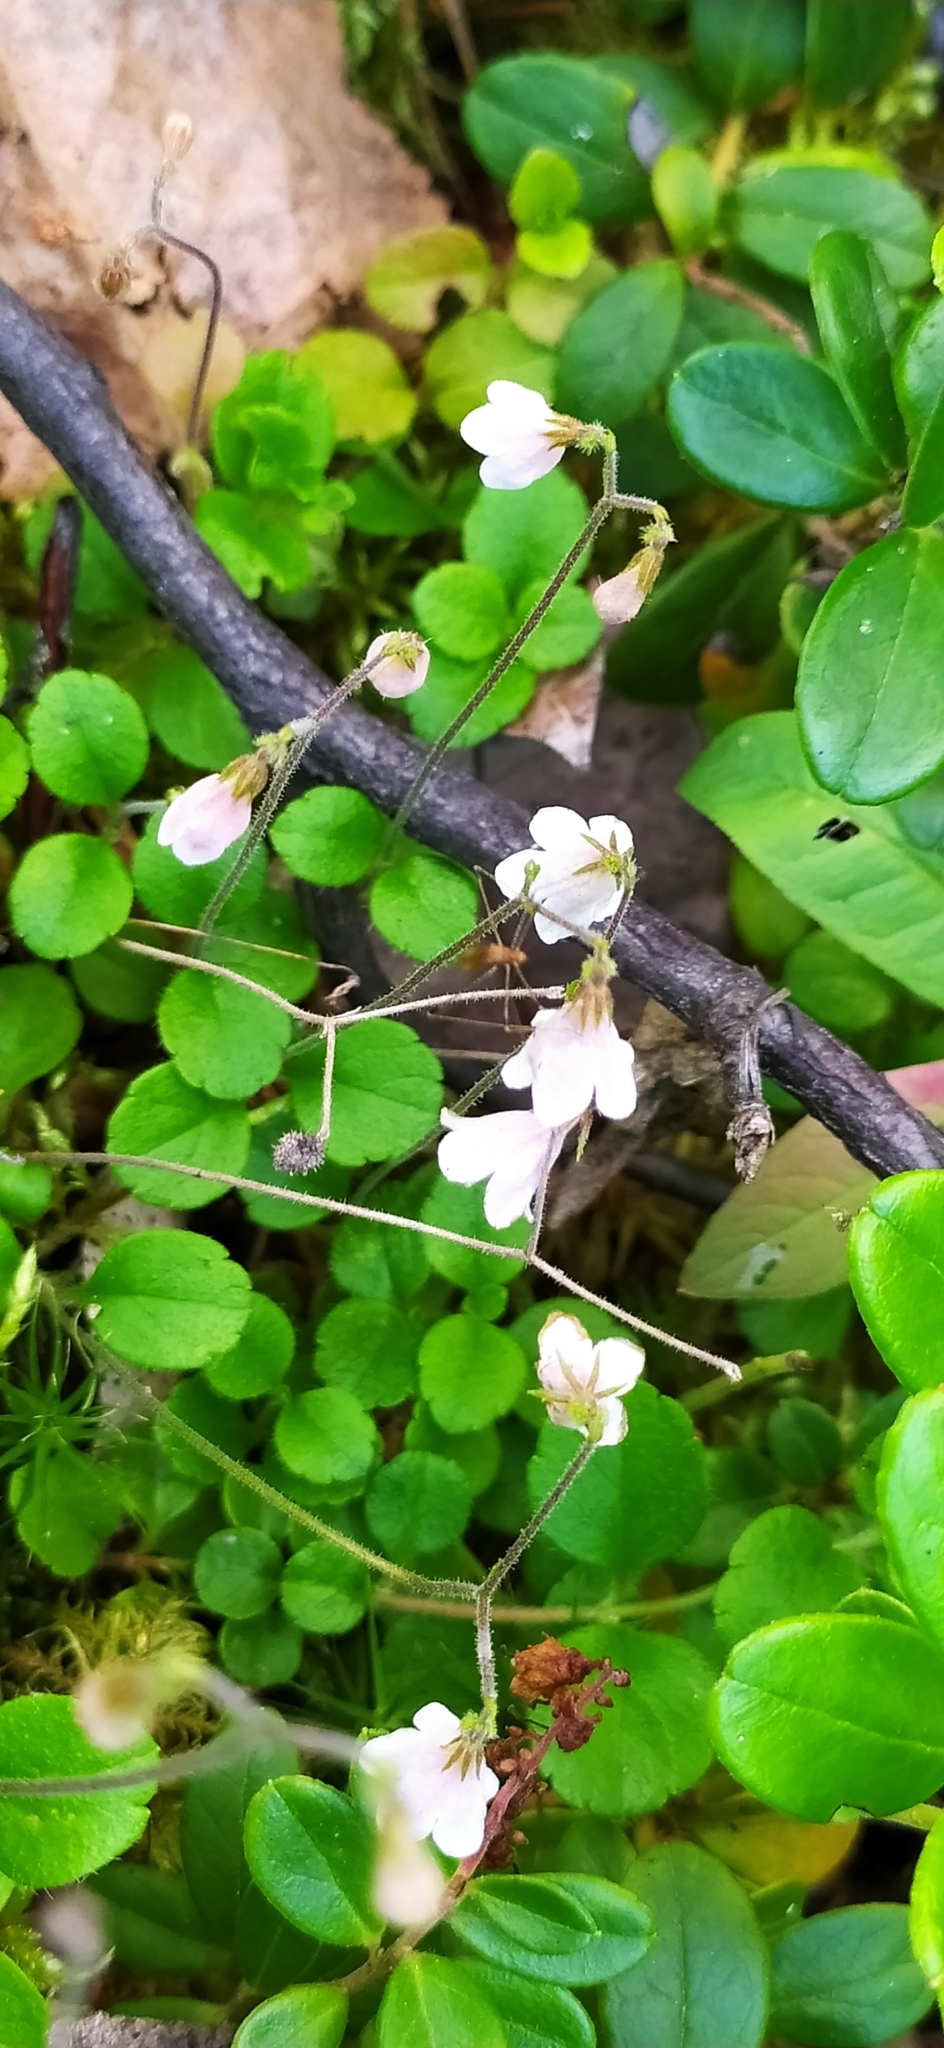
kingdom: Plantae
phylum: Tracheophyta
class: Magnoliopsida
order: Dipsacales
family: Caprifoliaceae
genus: Linnaea
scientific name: Linnaea borealis
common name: Twinflower
